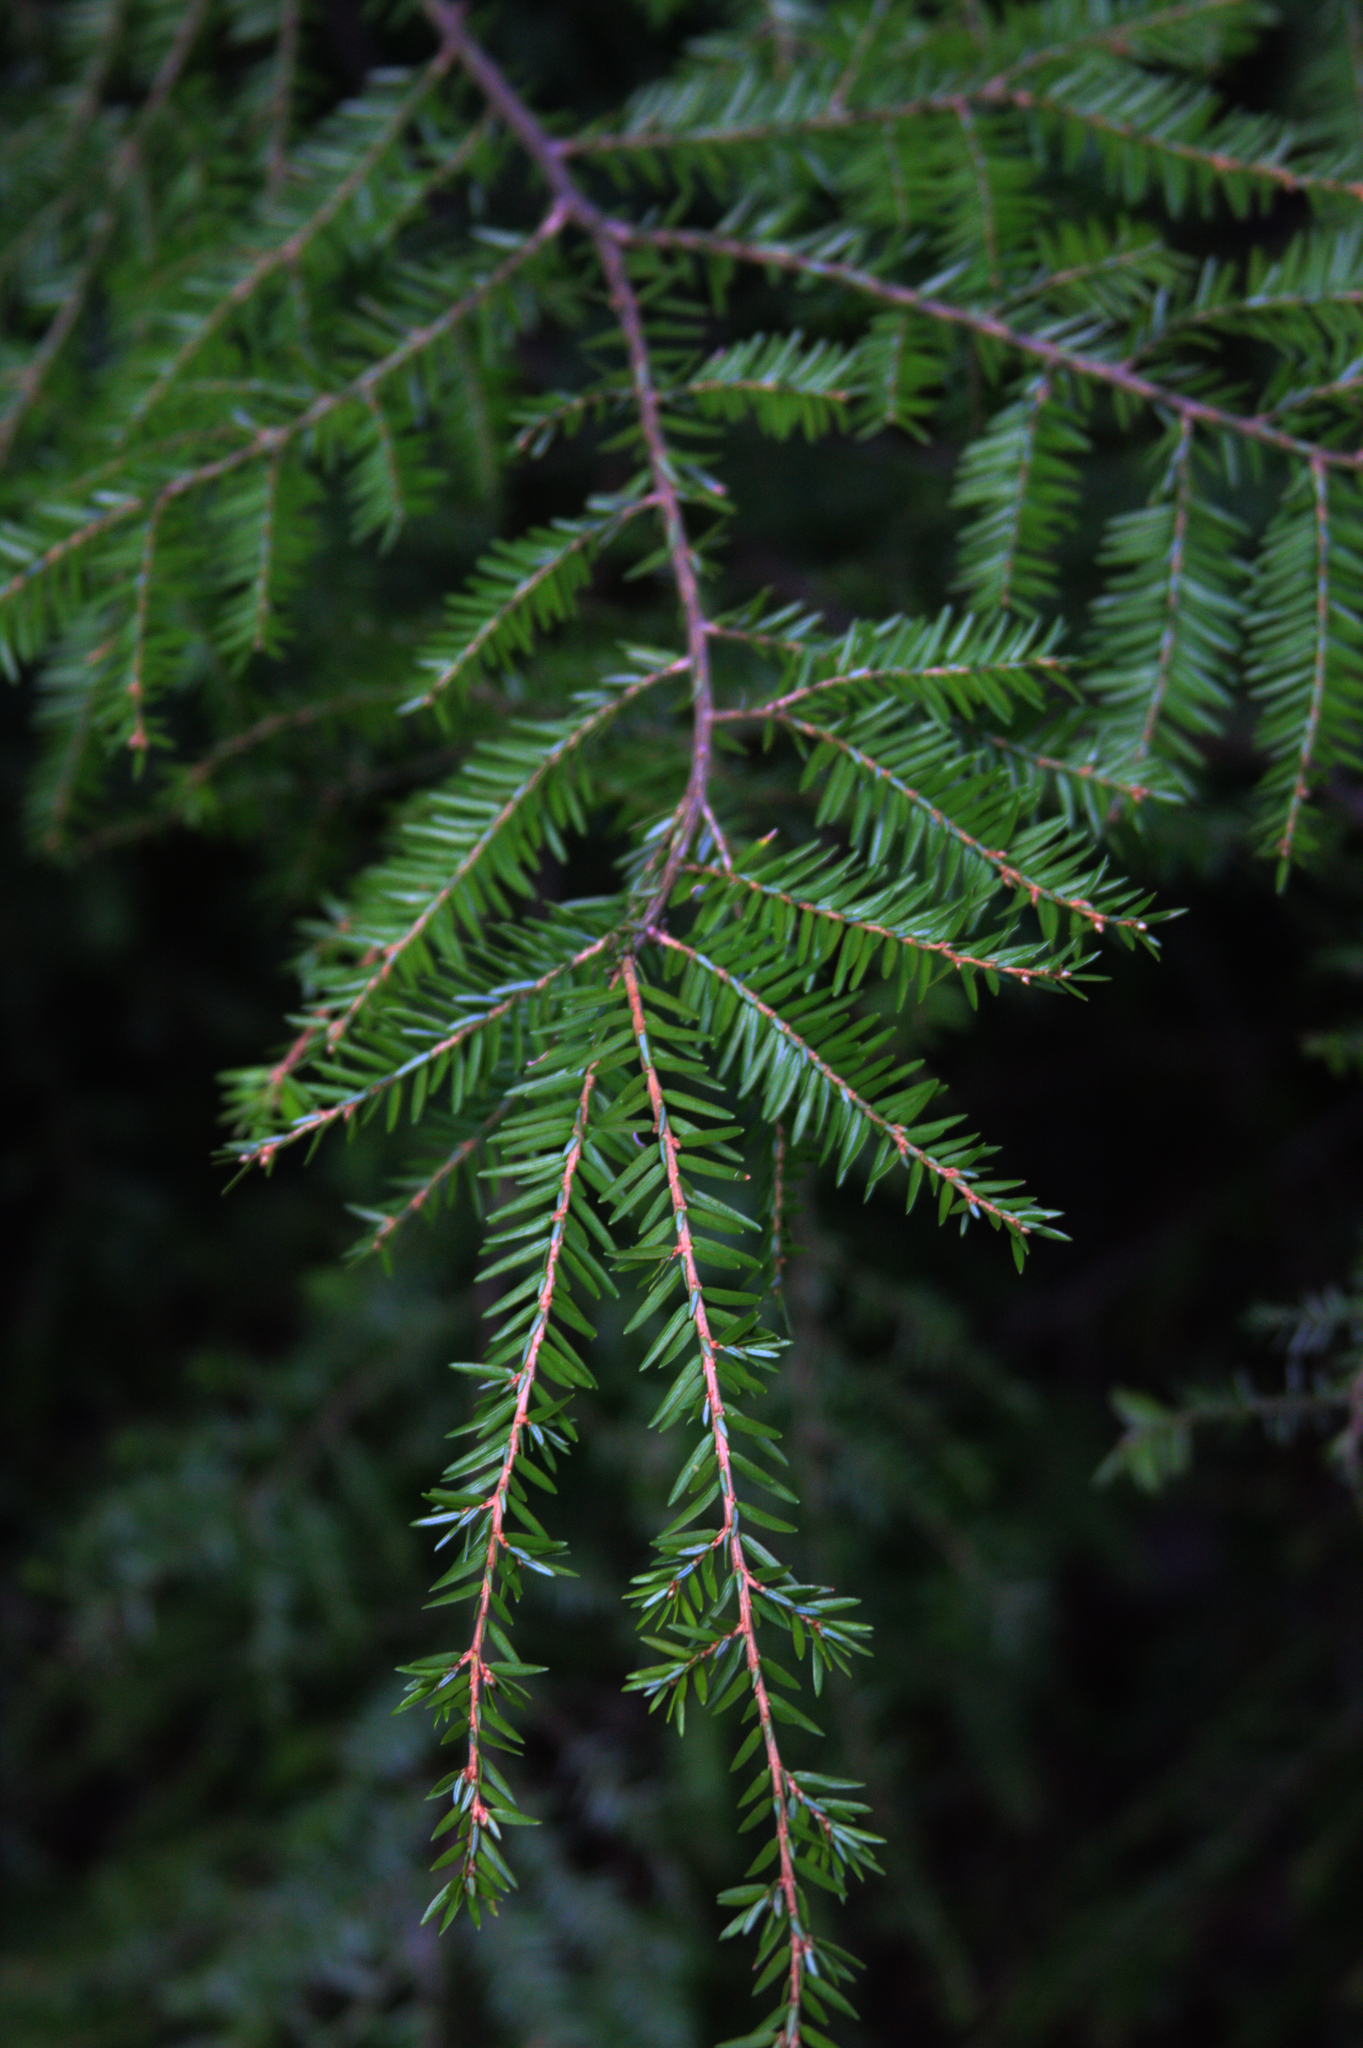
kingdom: Plantae
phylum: Tracheophyta
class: Pinopsida
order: Pinales
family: Pinaceae
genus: Tsuga
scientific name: Tsuga canadensis
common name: Eastern hemlock
